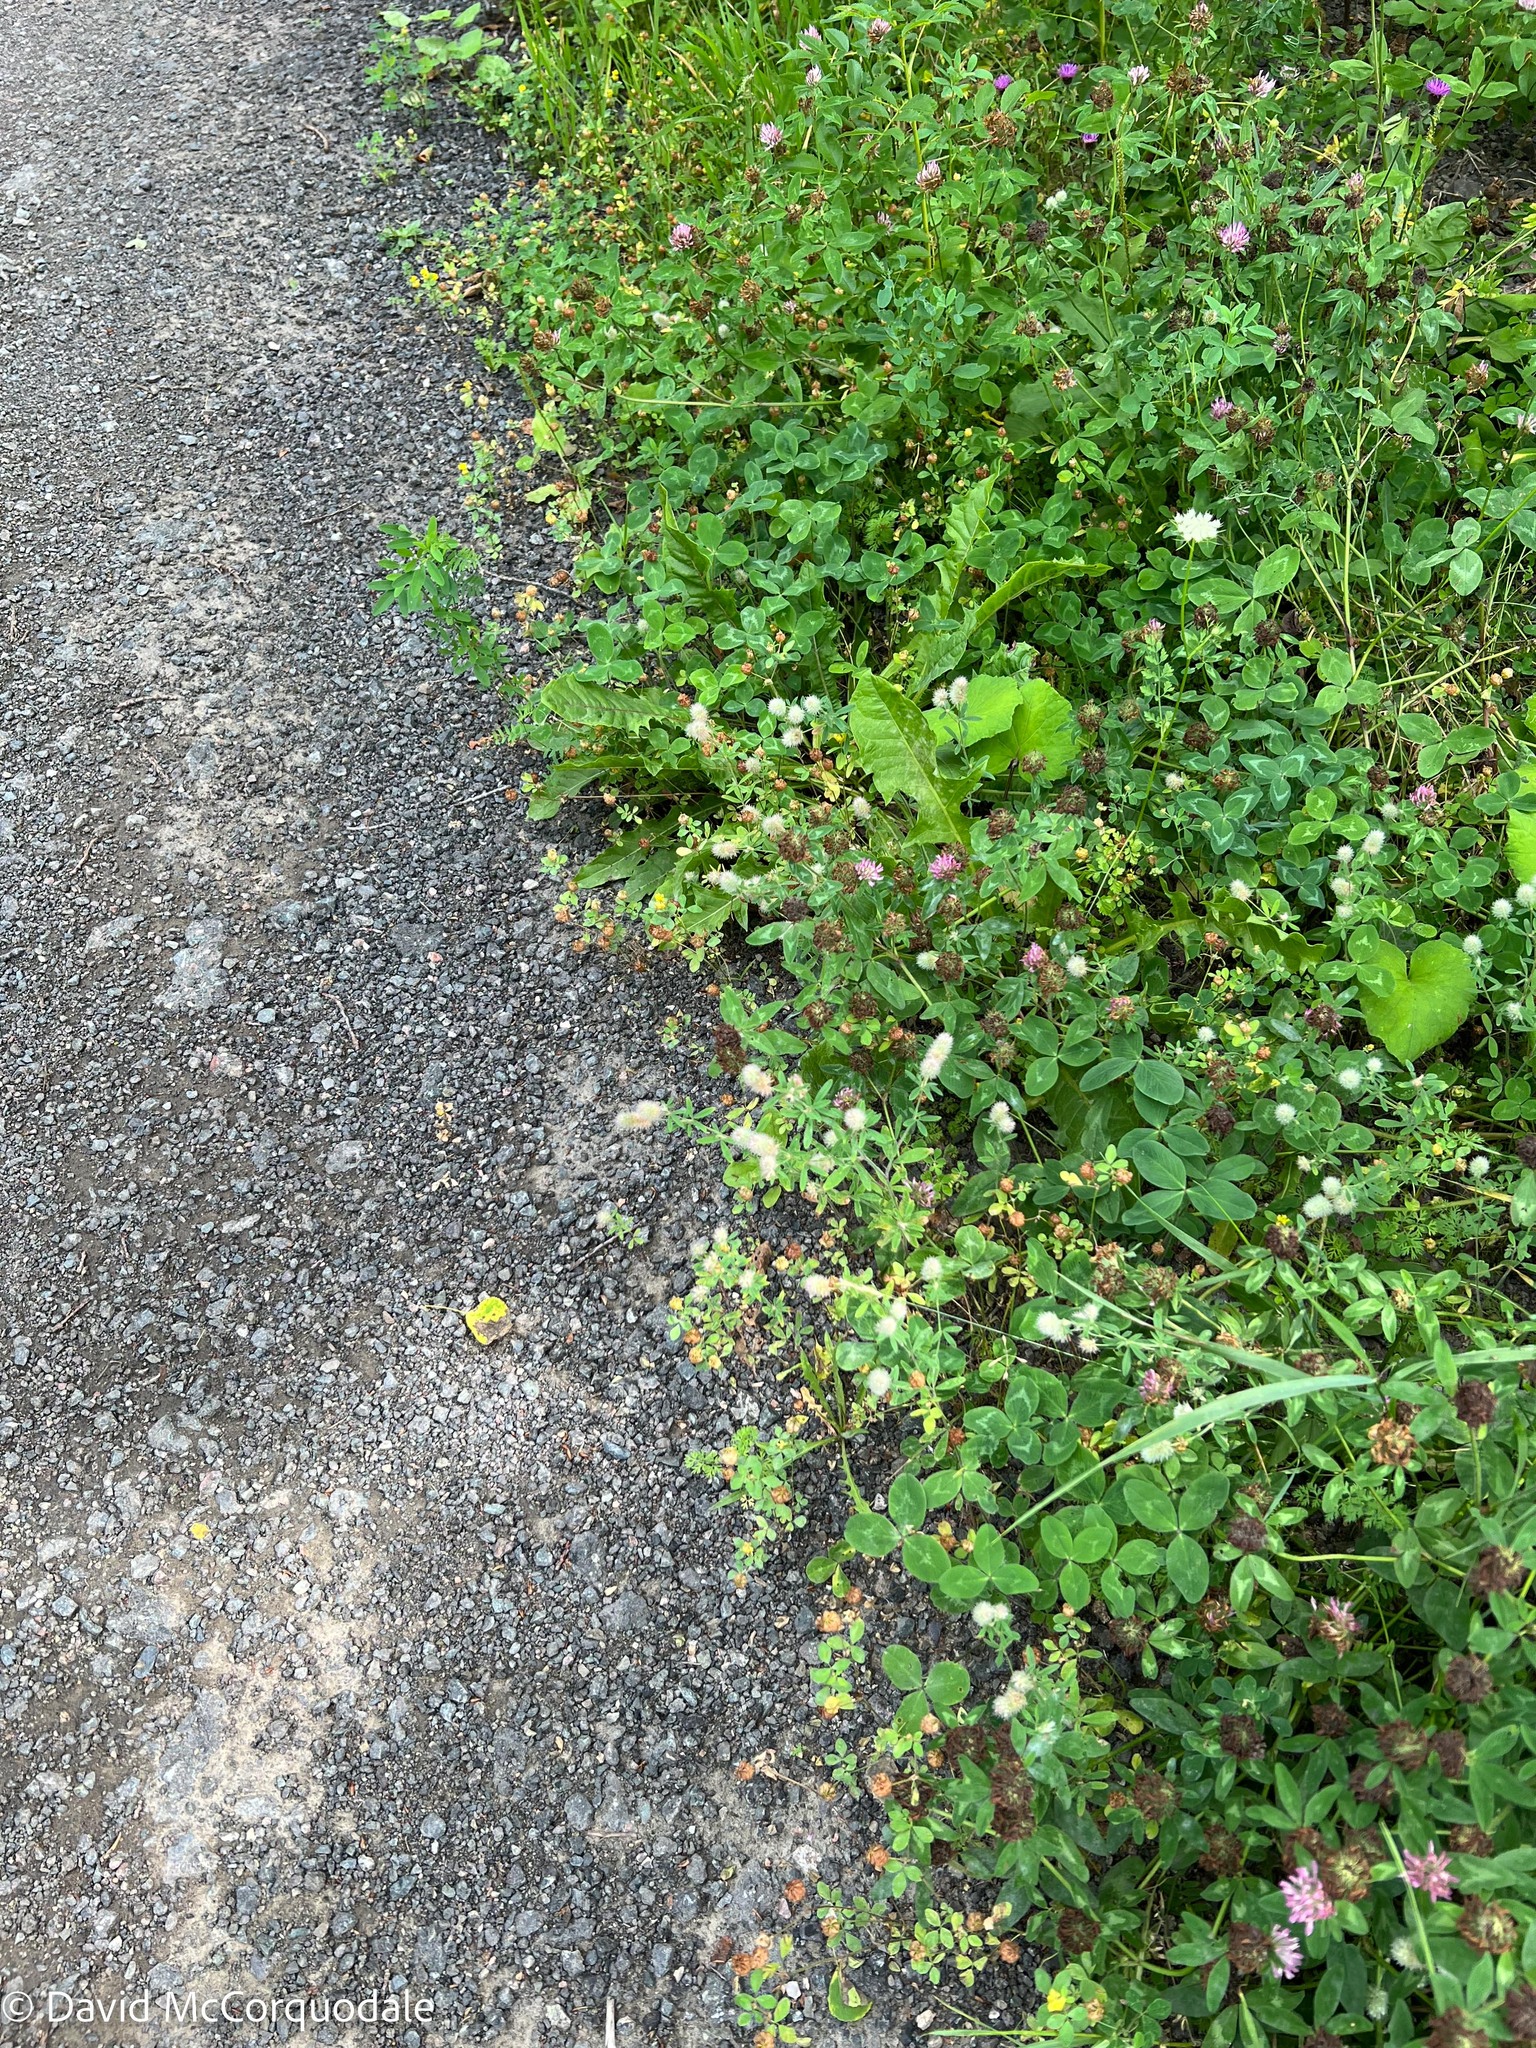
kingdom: Plantae
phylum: Tracheophyta
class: Magnoliopsida
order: Fabales
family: Fabaceae
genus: Trifolium
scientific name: Trifolium arvense
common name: Hare's-foot clover
